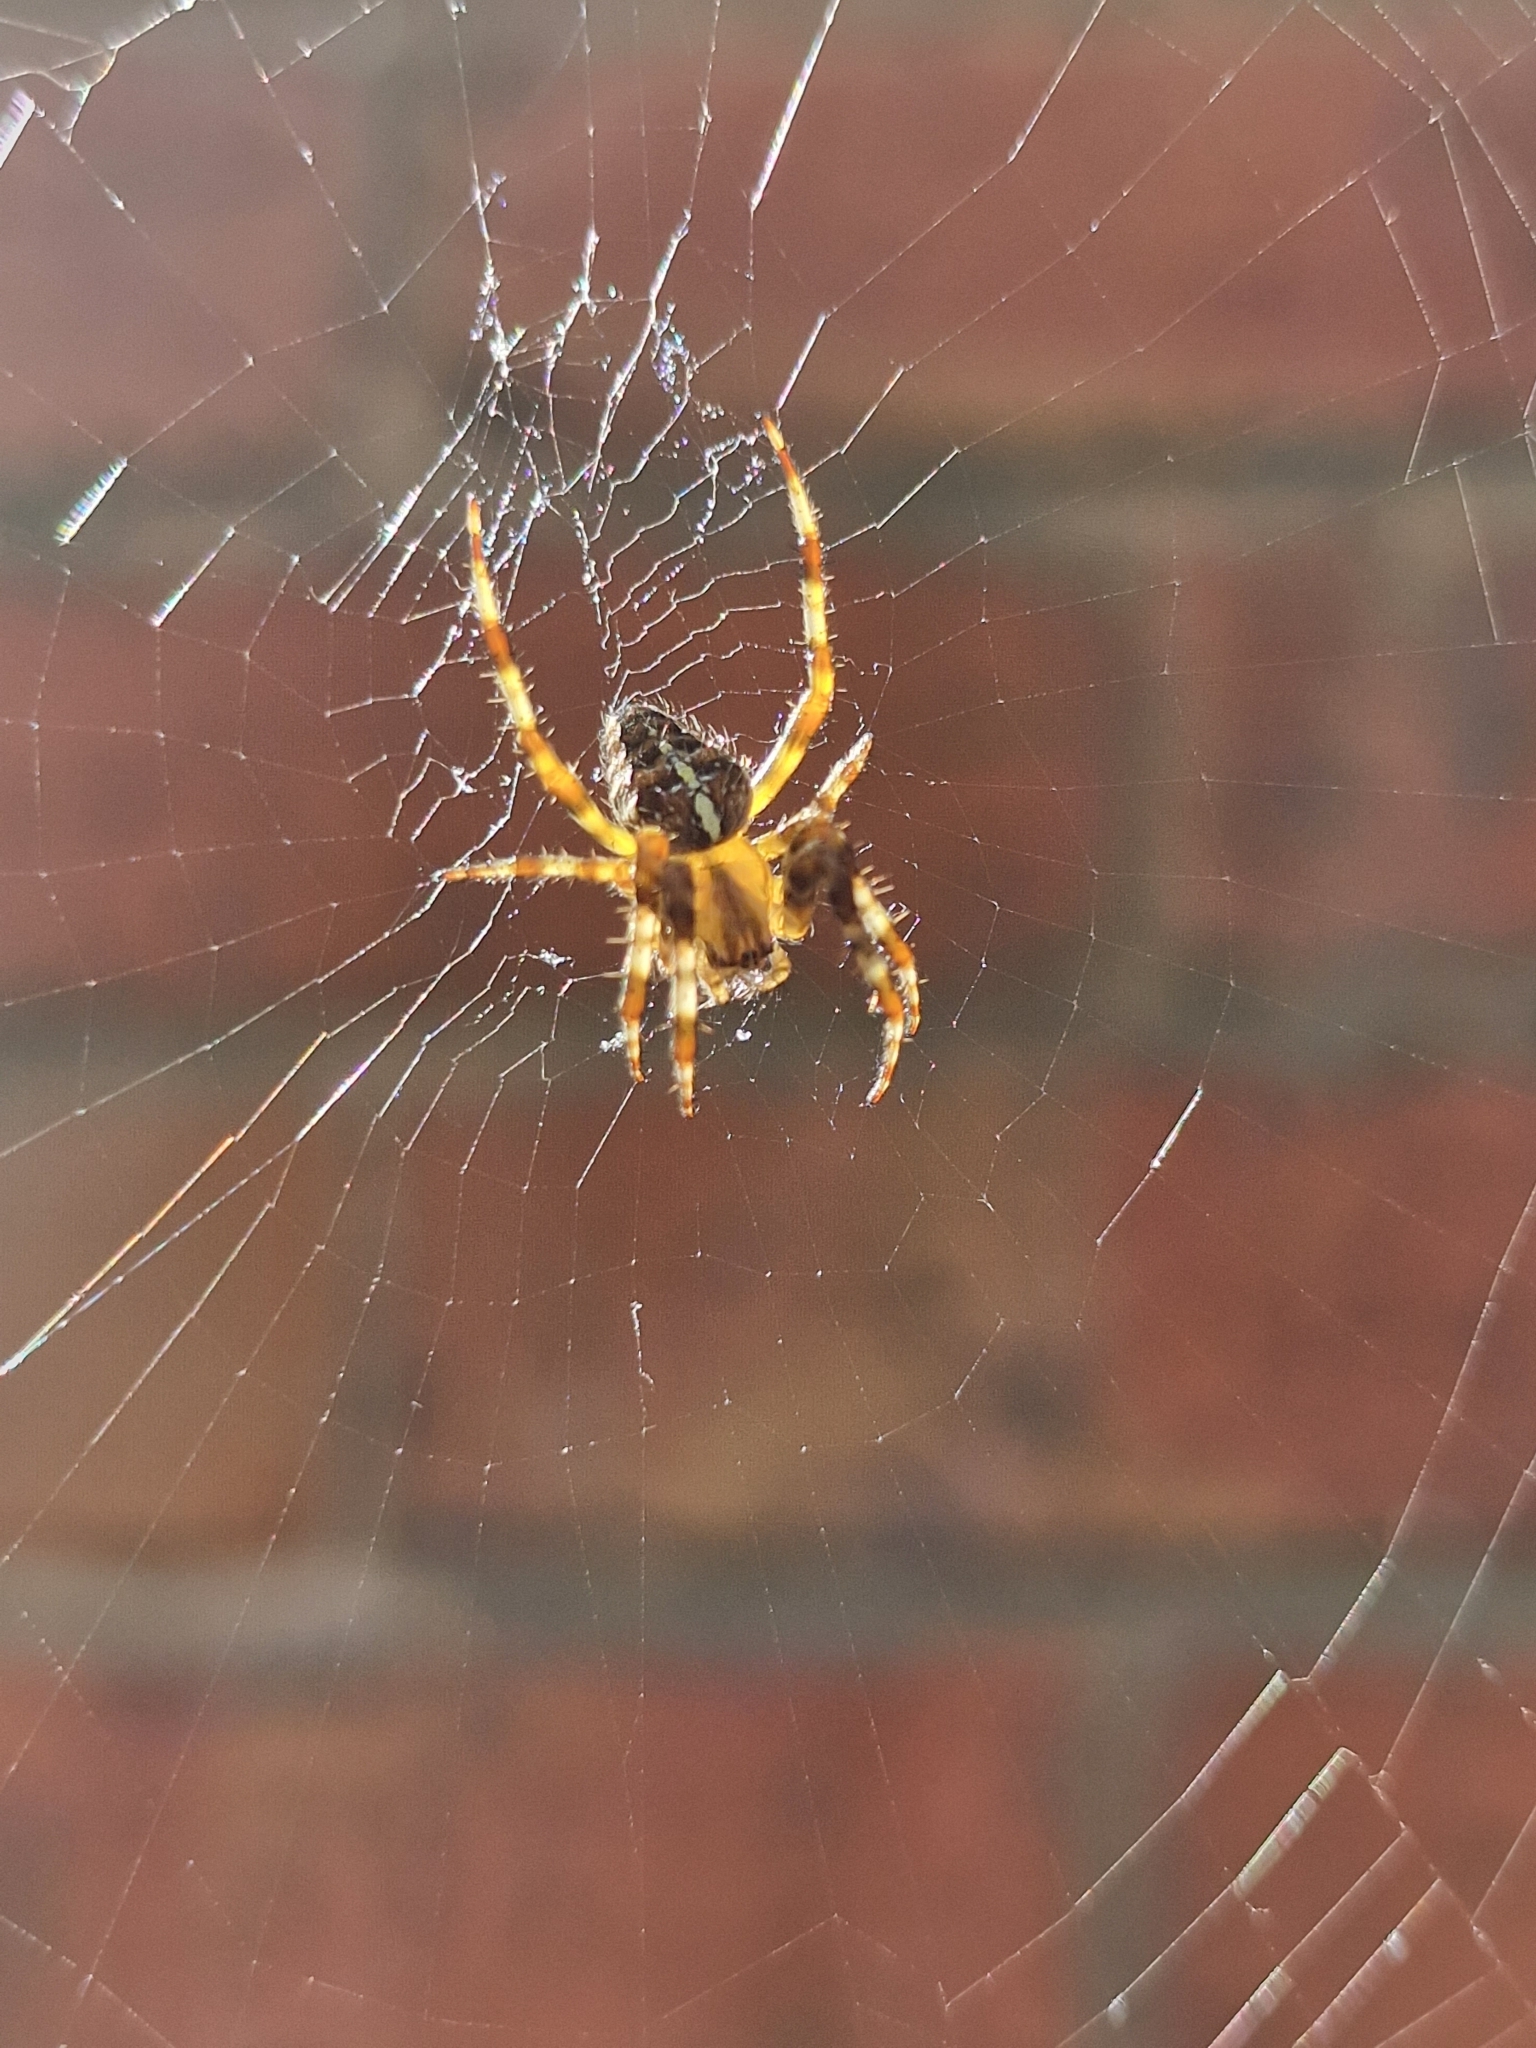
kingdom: Animalia
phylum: Arthropoda
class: Arachnida
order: Araneae
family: Araneidae
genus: Araneus
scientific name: Araneus diadematus
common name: Cross orbweaver
